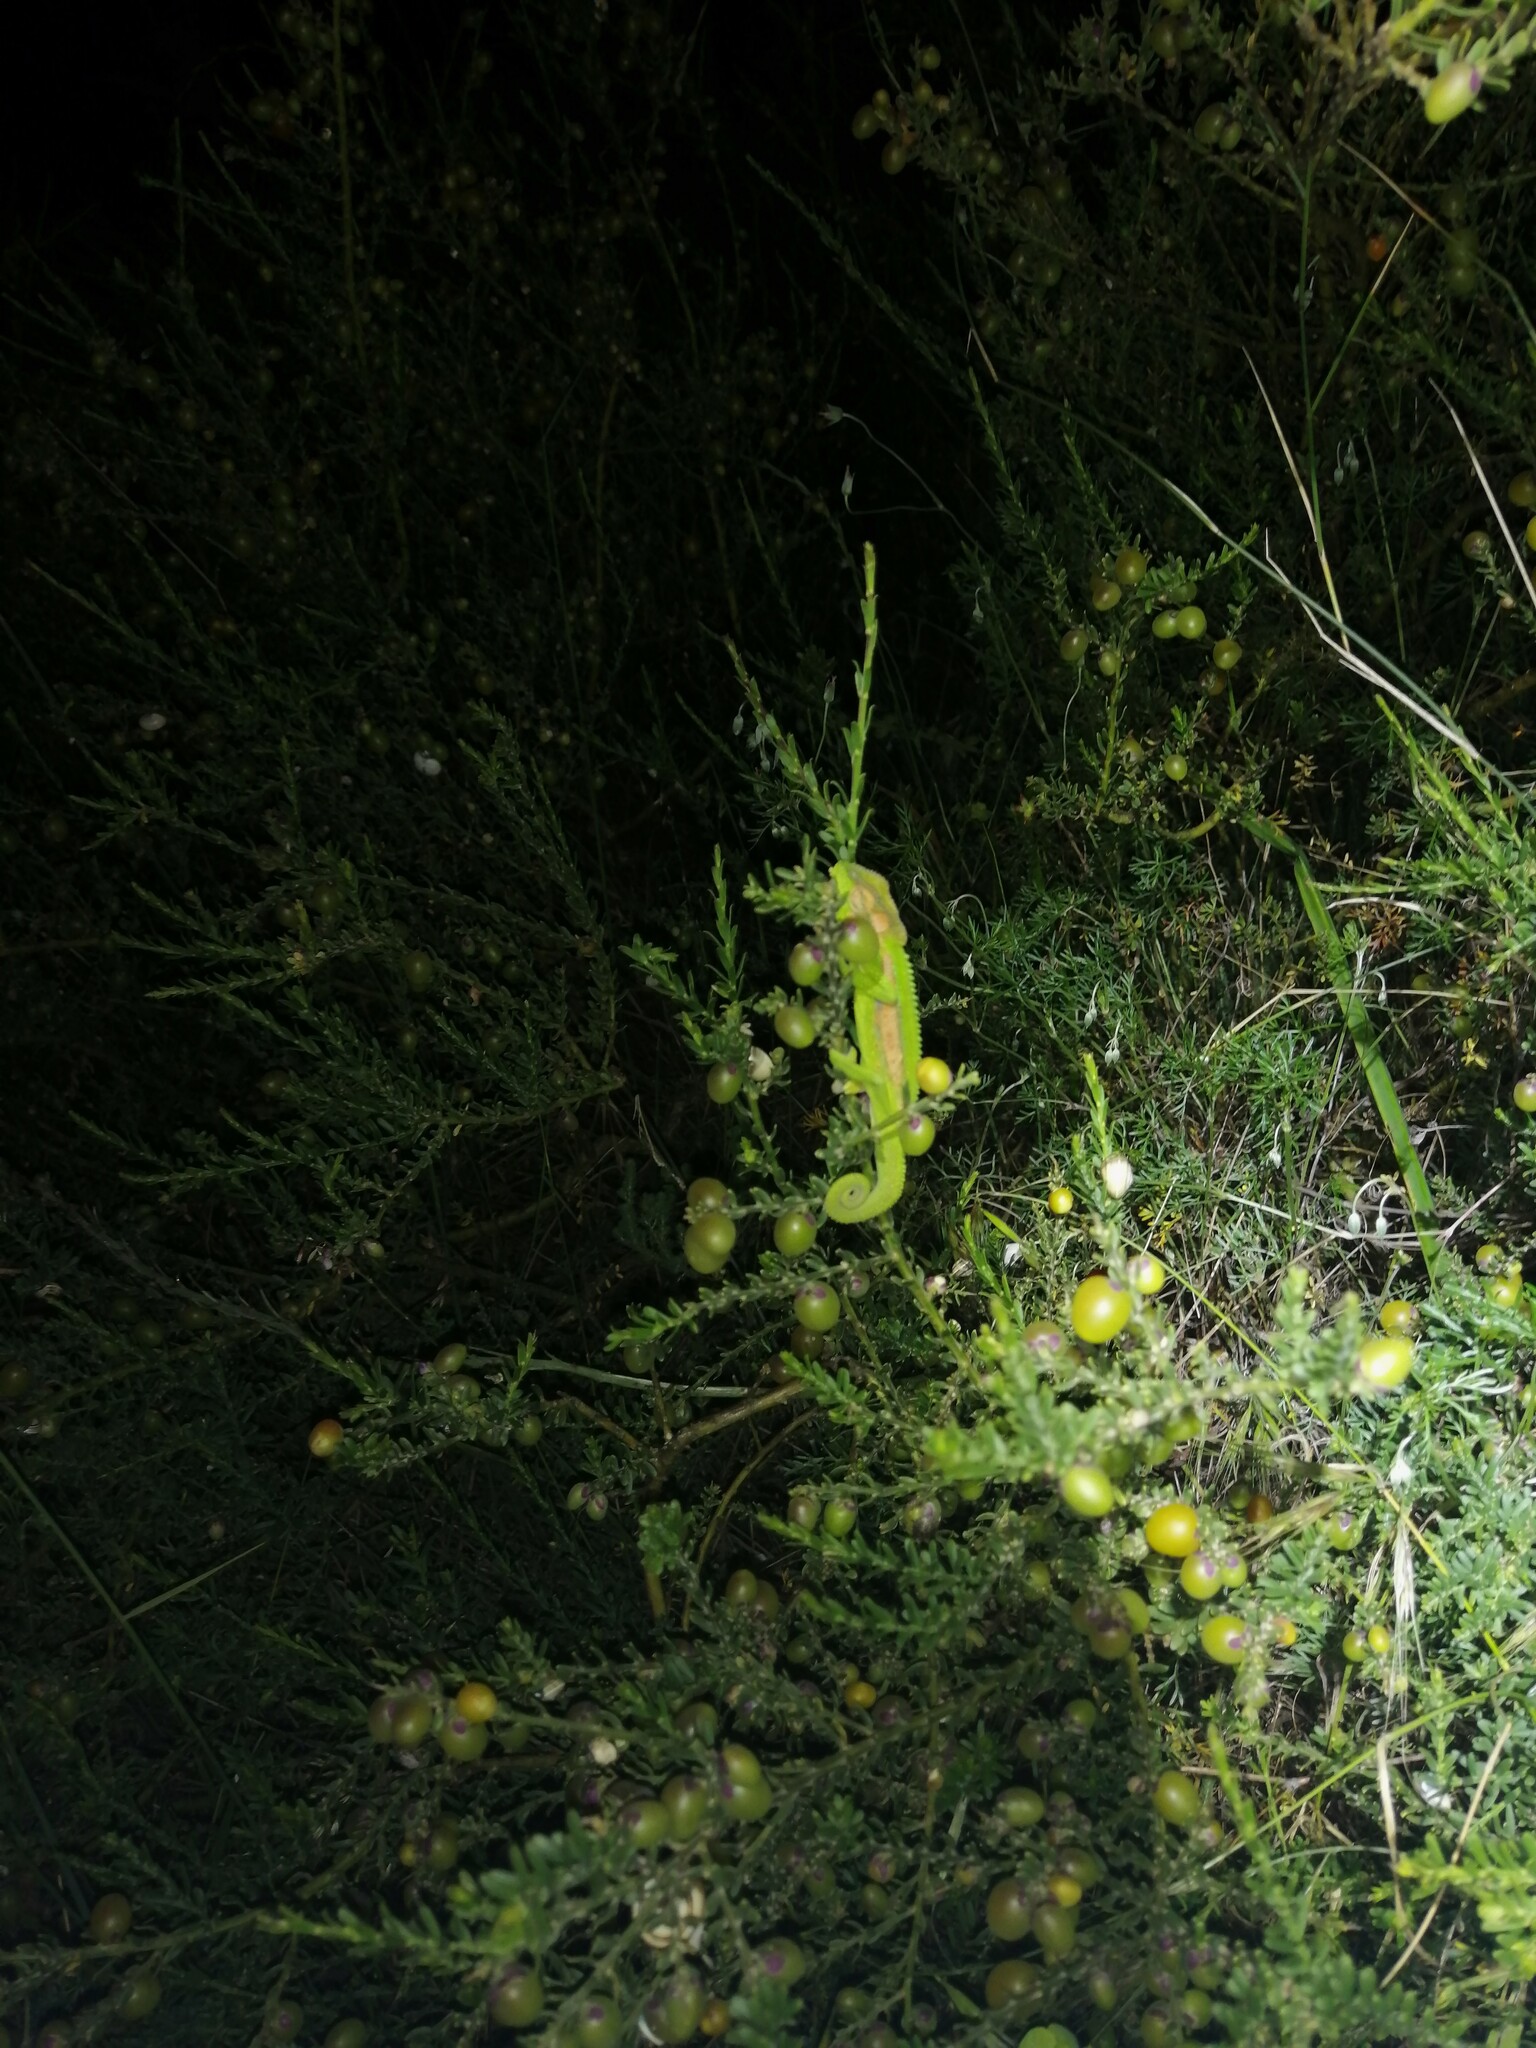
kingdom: Animalia
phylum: Chordata
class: Squamata
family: Chamaeleonidae
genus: Bradypodion
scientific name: Bradypodion pumilum
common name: Cape dwarf chameleon
